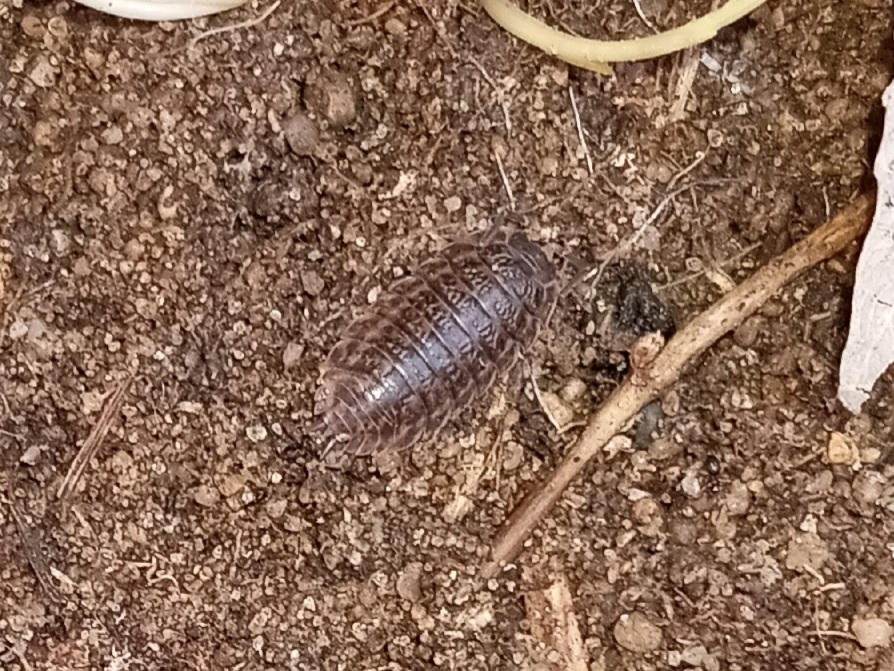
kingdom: Animalia
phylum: Arthropoda
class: Malacostraca
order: Isopoda
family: Trachelipodidae
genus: Trachelipus
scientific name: Trachelipus rathkii
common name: Isopod
